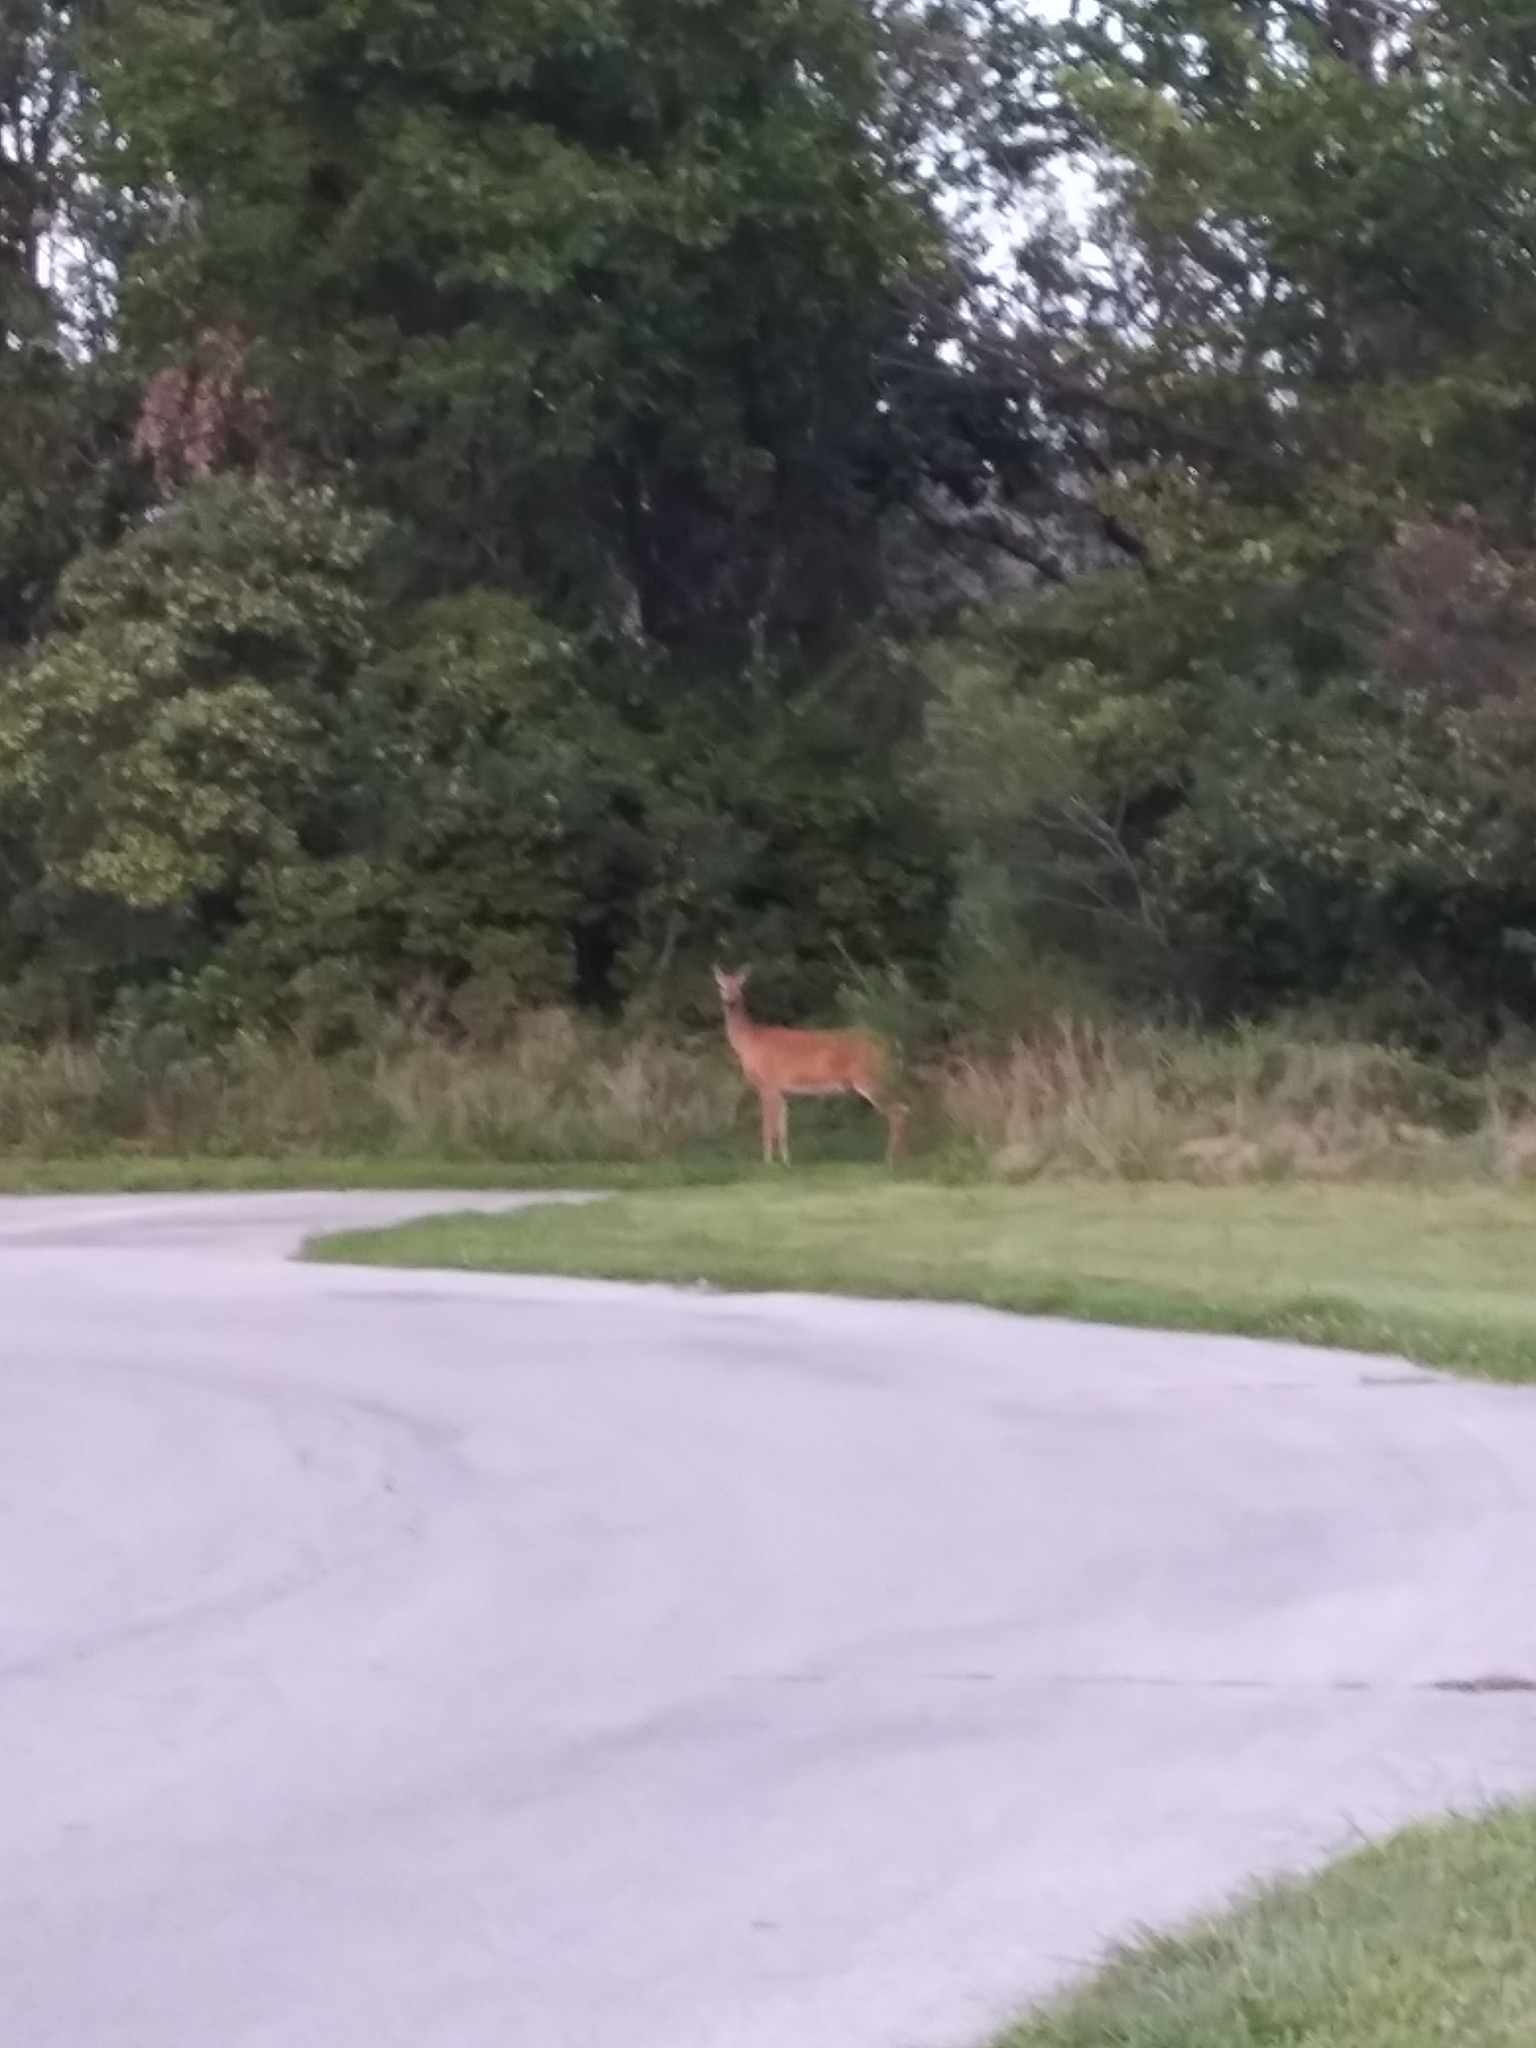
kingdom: Animalia
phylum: Chordata
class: Mammalia
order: Artiodactyla
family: Cervidae
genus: Odocoileus
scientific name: Odocoileus virginianus
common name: White-tailed deer
